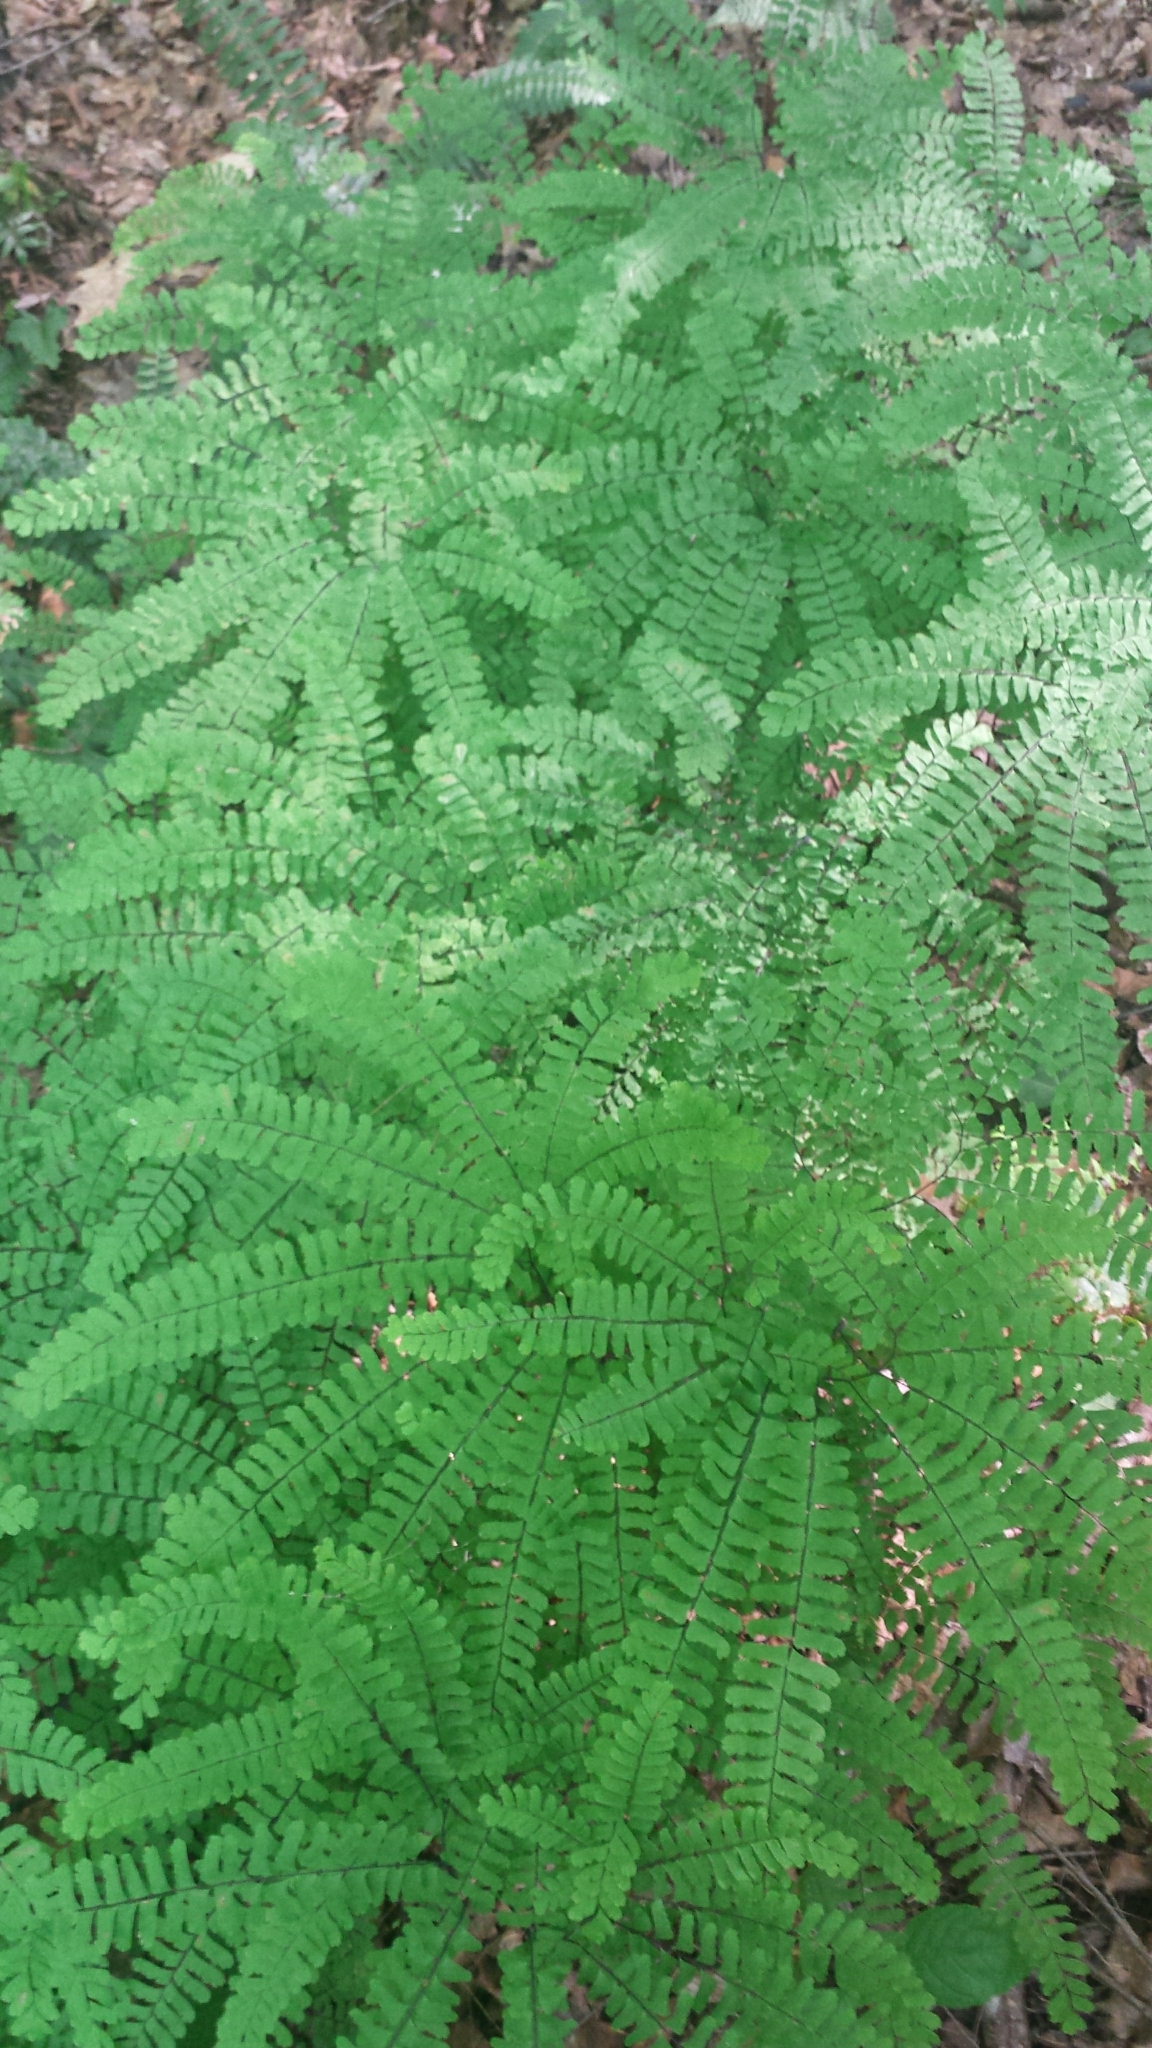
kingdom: Plantae
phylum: Tracheophyta
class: Polypodiopsida
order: Polypodiales
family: Pteridaceae
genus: Adiantum
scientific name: Adiantum pedatum
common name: Five-finger fern
